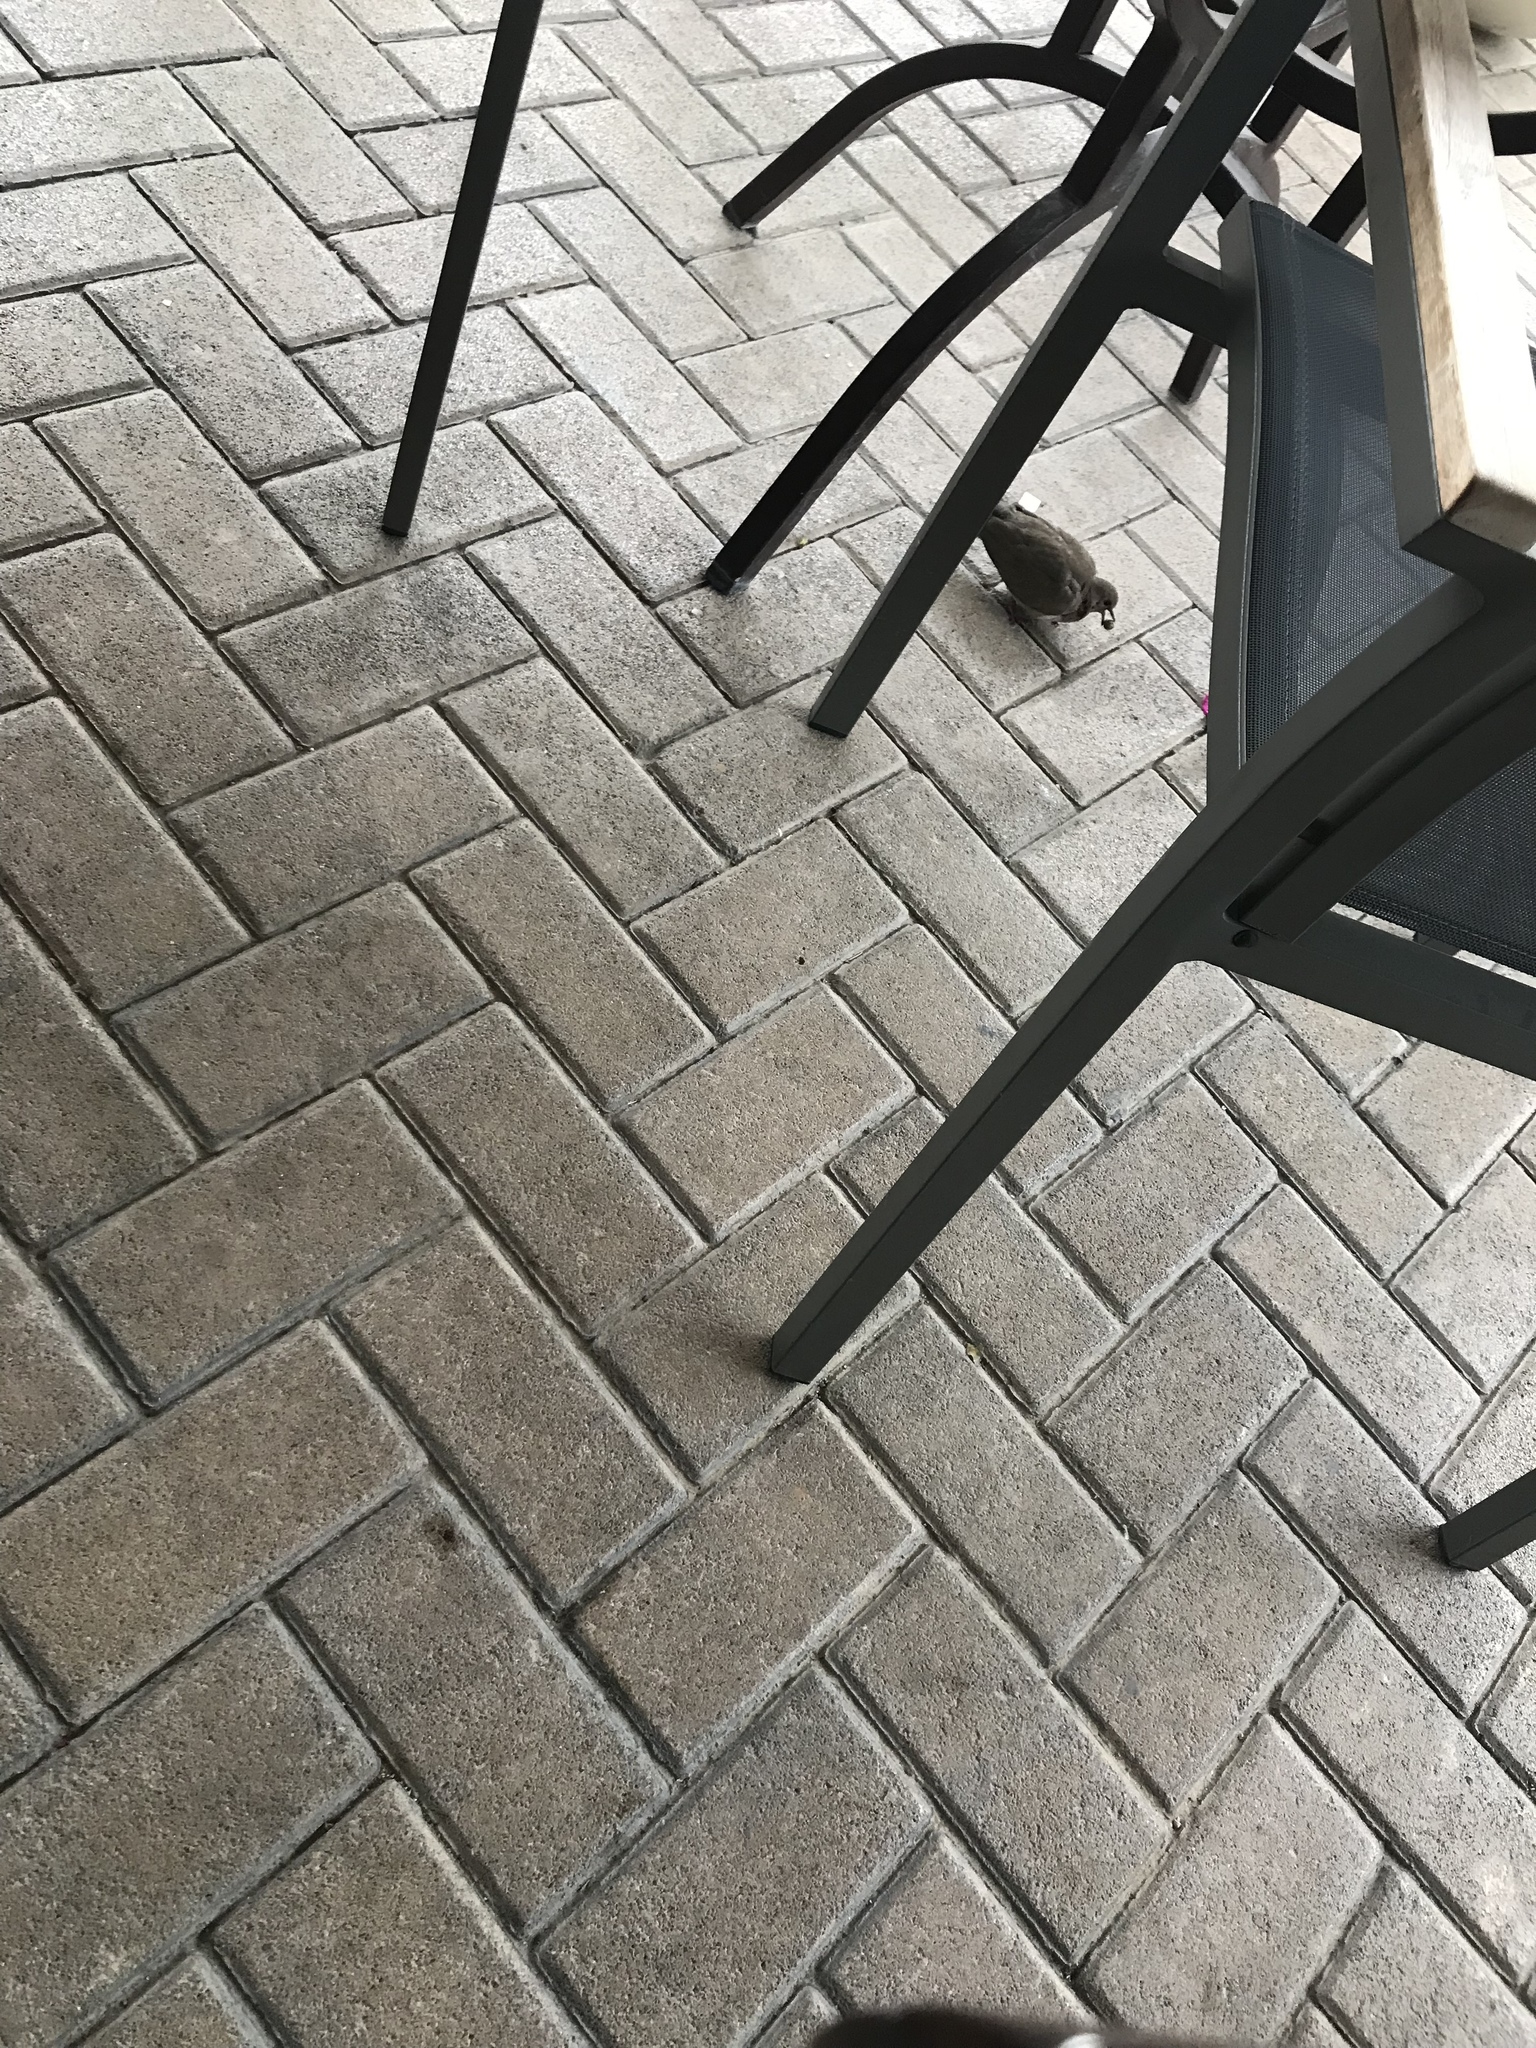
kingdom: Animalia
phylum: Chordata
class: Aves
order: Columbiformes
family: Columbidae
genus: Spilopelia
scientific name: Spilopelia senegalensis
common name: Laughing dove
